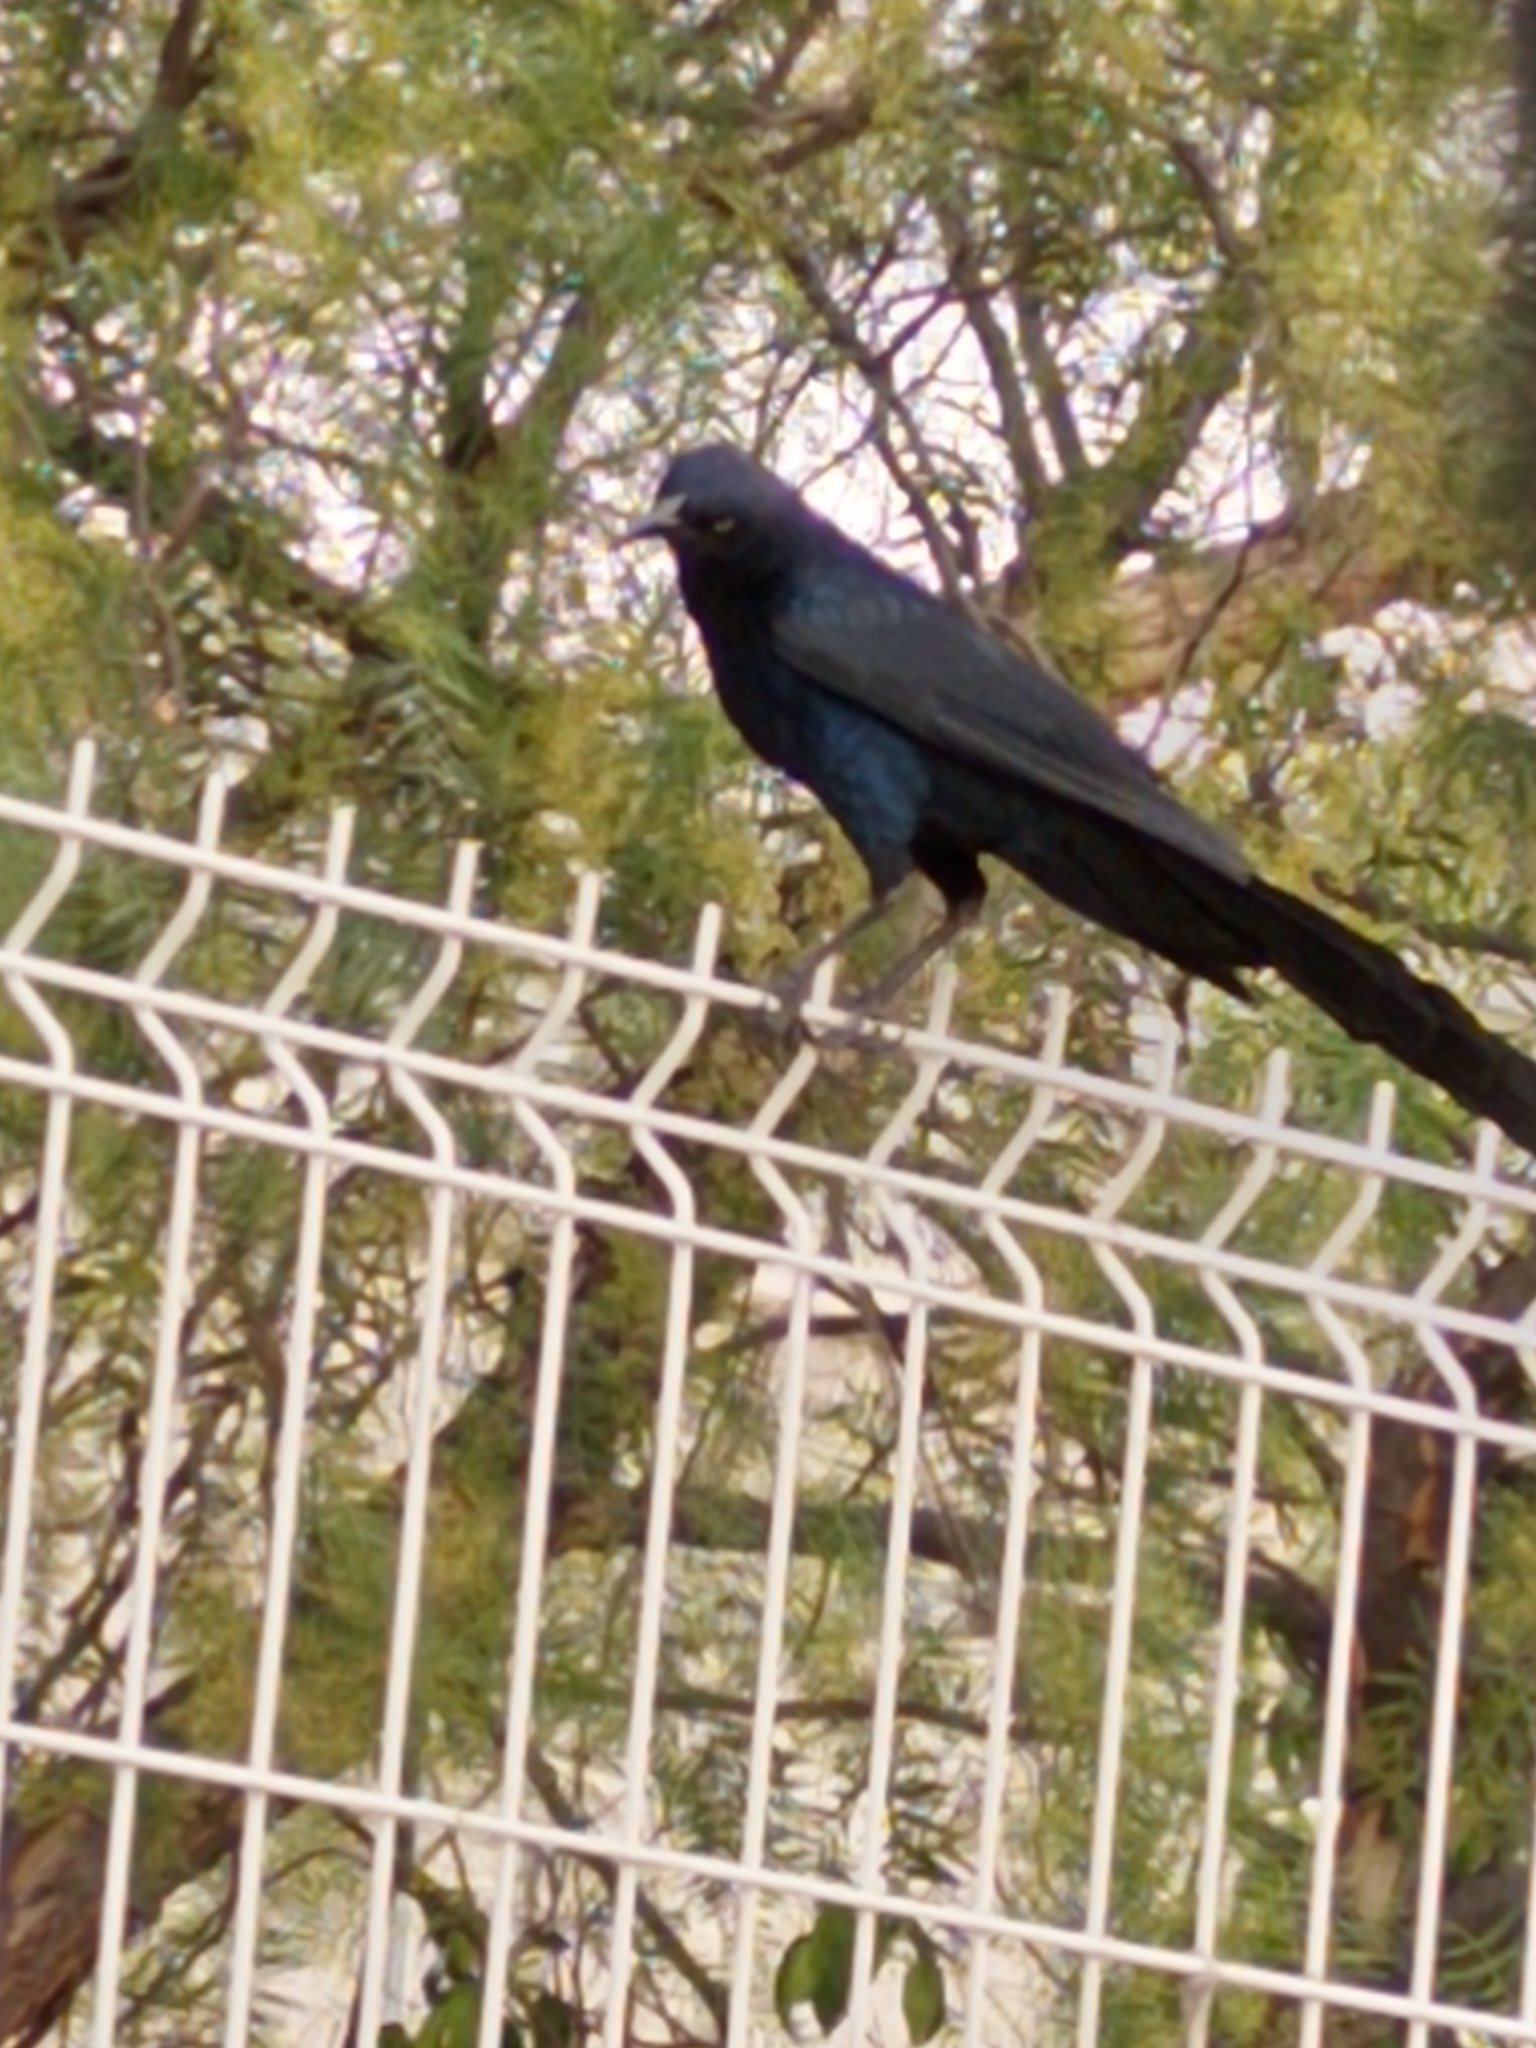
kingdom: Animalia
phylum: Chordata
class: Aves
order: Passeriformes
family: Icteridae
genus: Quiscalus
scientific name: Quiscalus mexicanus
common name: Great-tailed grackle
